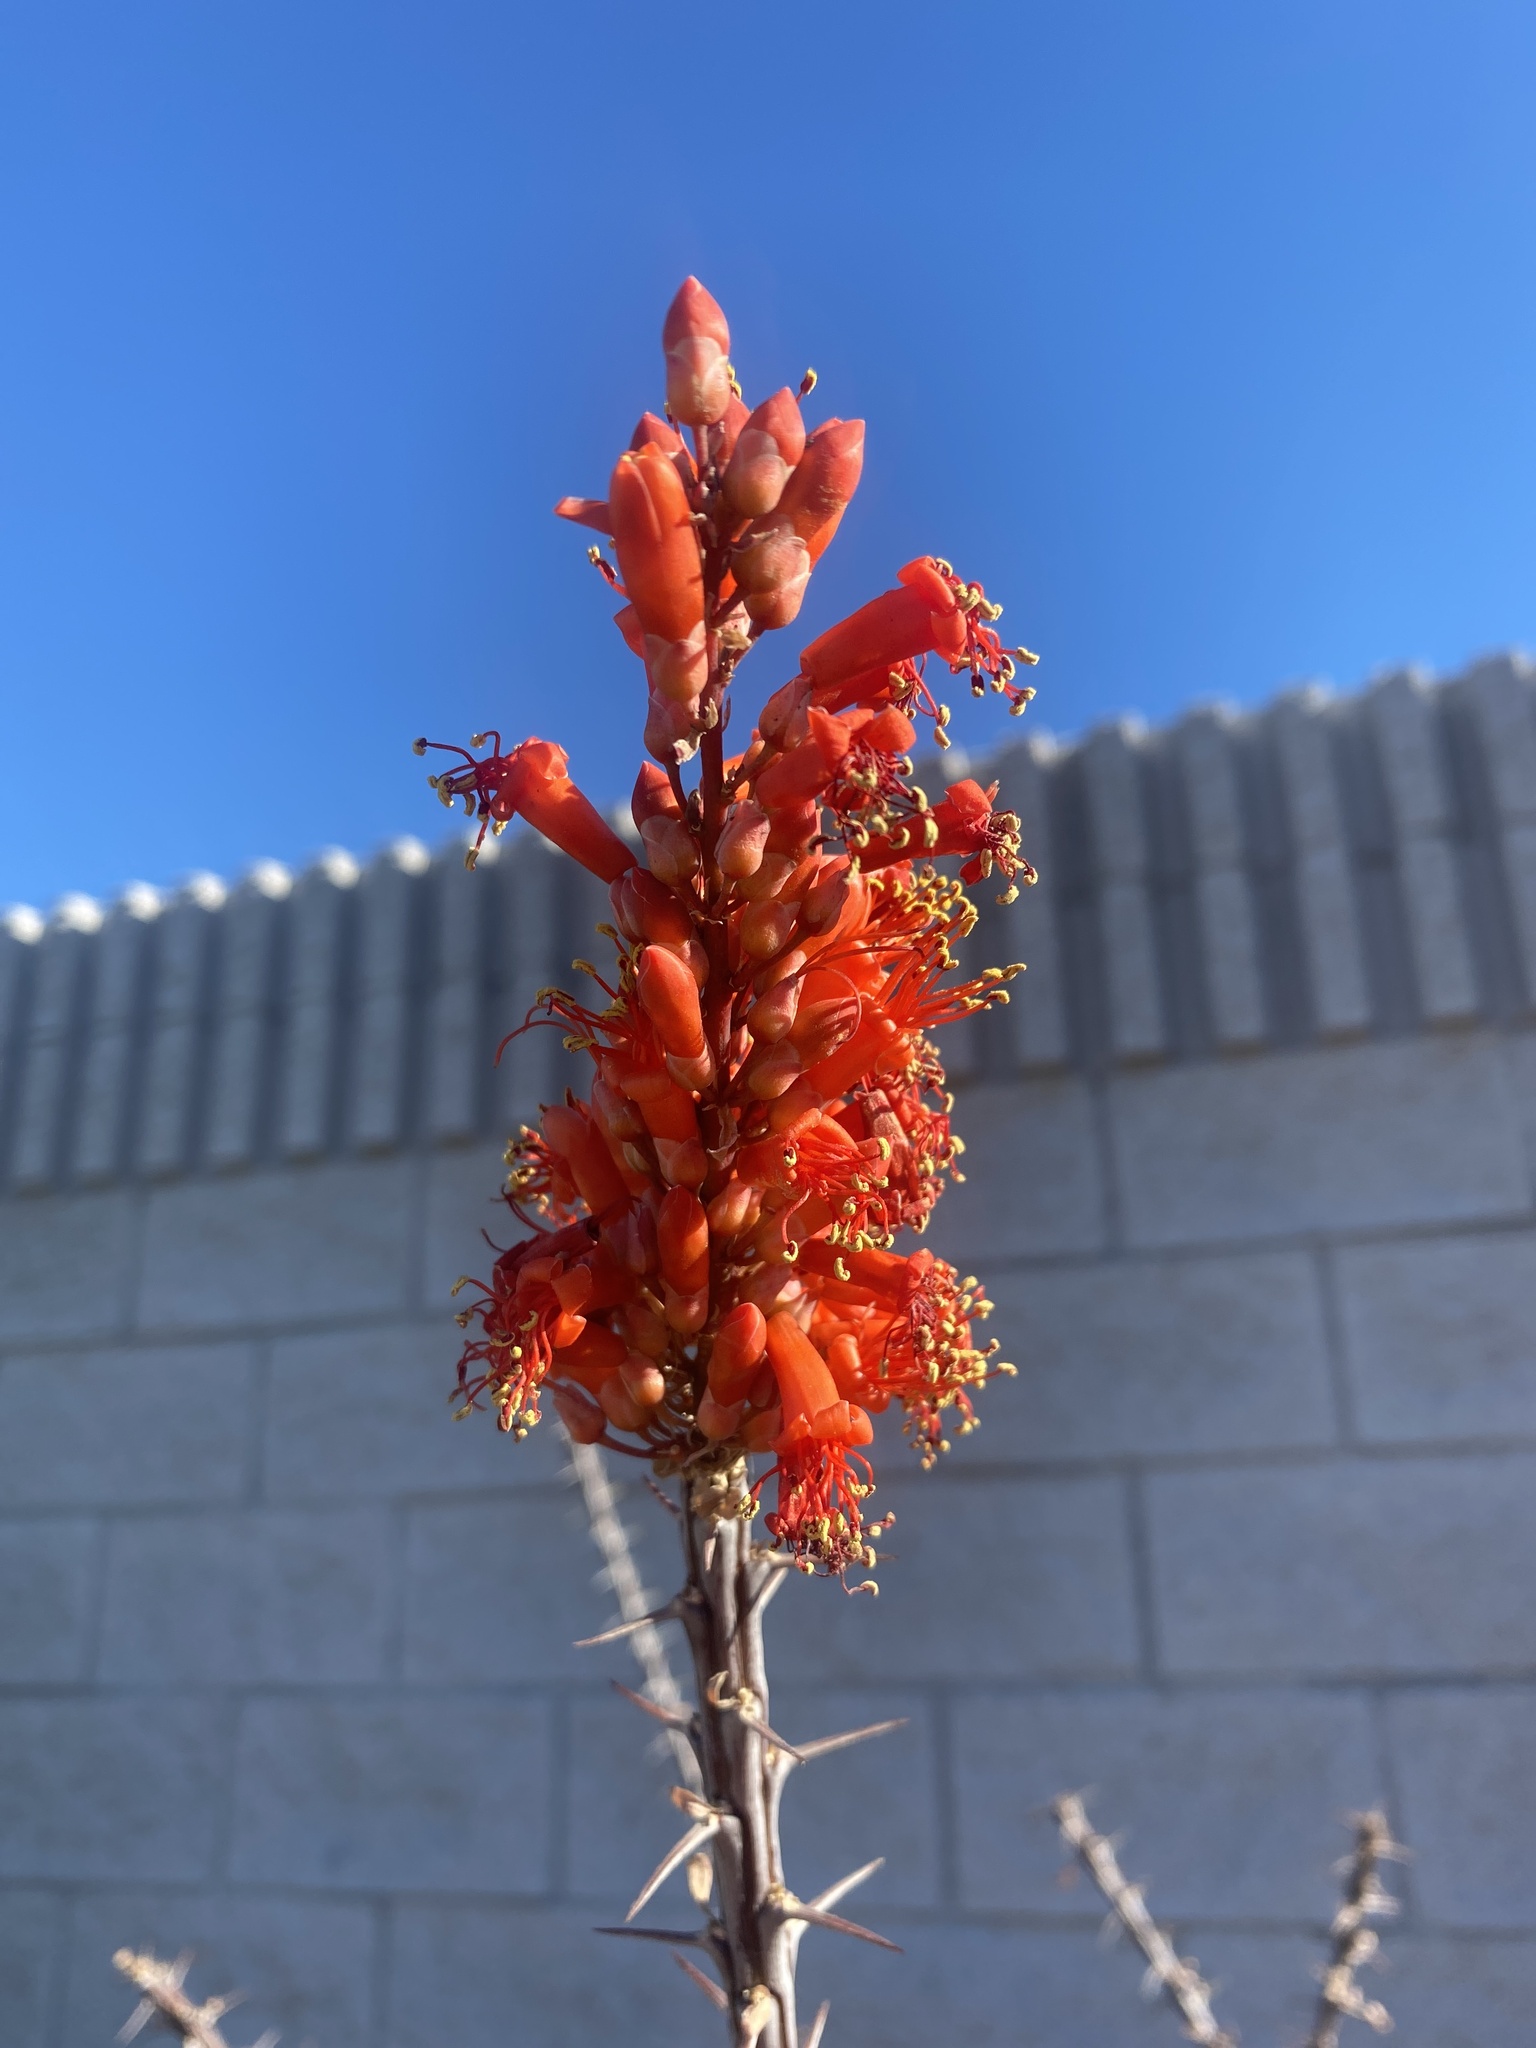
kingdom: Plantae
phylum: Tracheophyta
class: Magnoliopsida
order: Ericales
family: Fouquieriaceae
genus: Fouquieria
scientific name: Fouquieria splendens
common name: Vine-cactus
